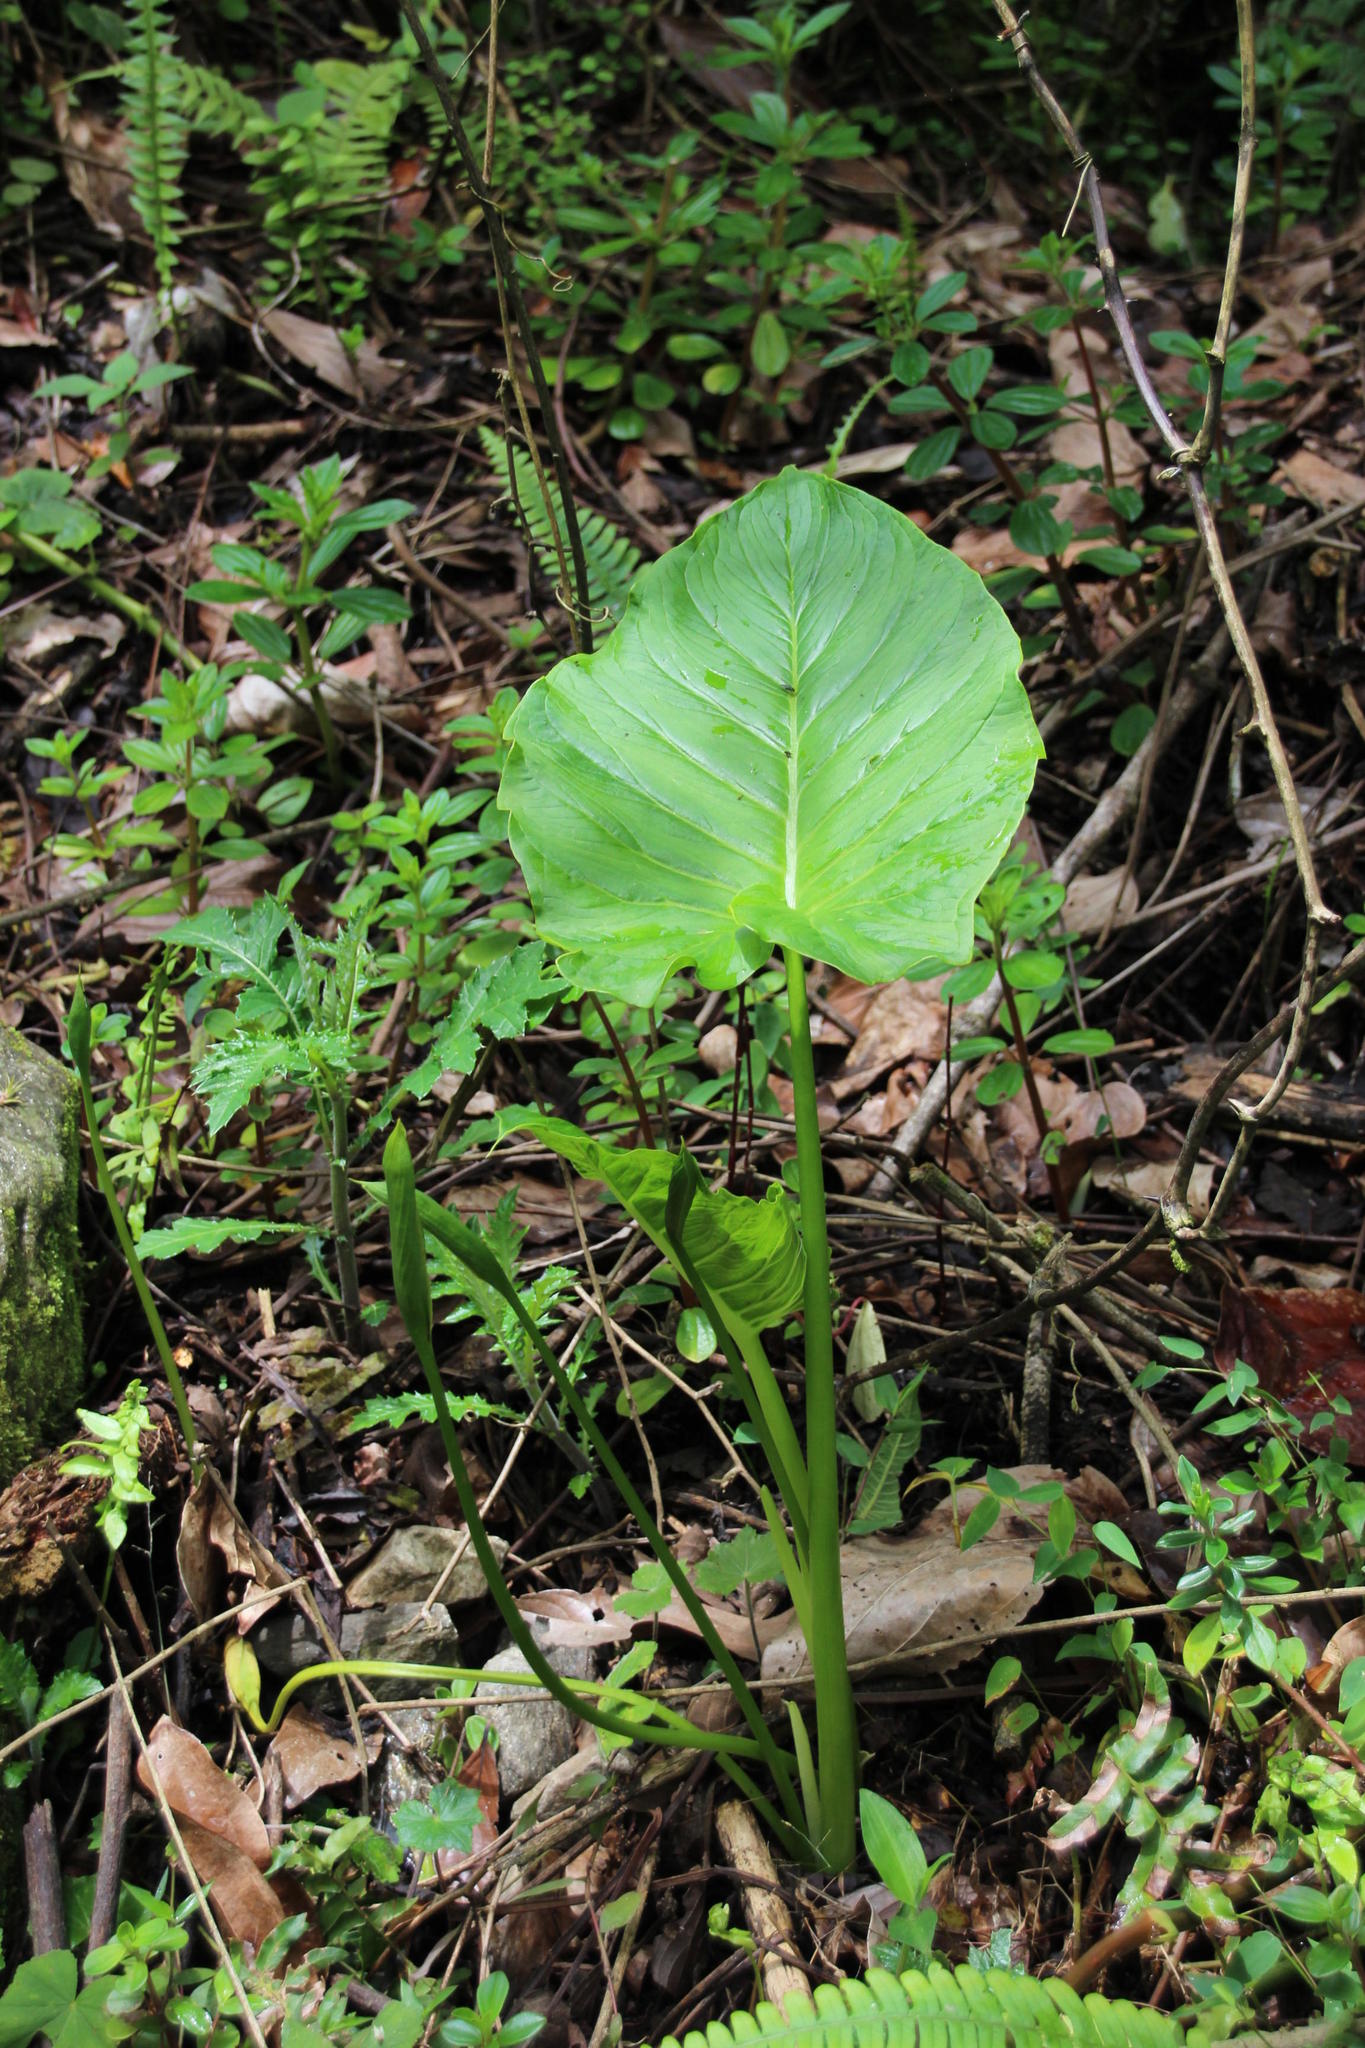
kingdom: Plantae
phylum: Tracheophyta
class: Liliopsida
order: Alismatales
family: Araceae
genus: Spathantheum
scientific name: Spathantheum orbignyanum
